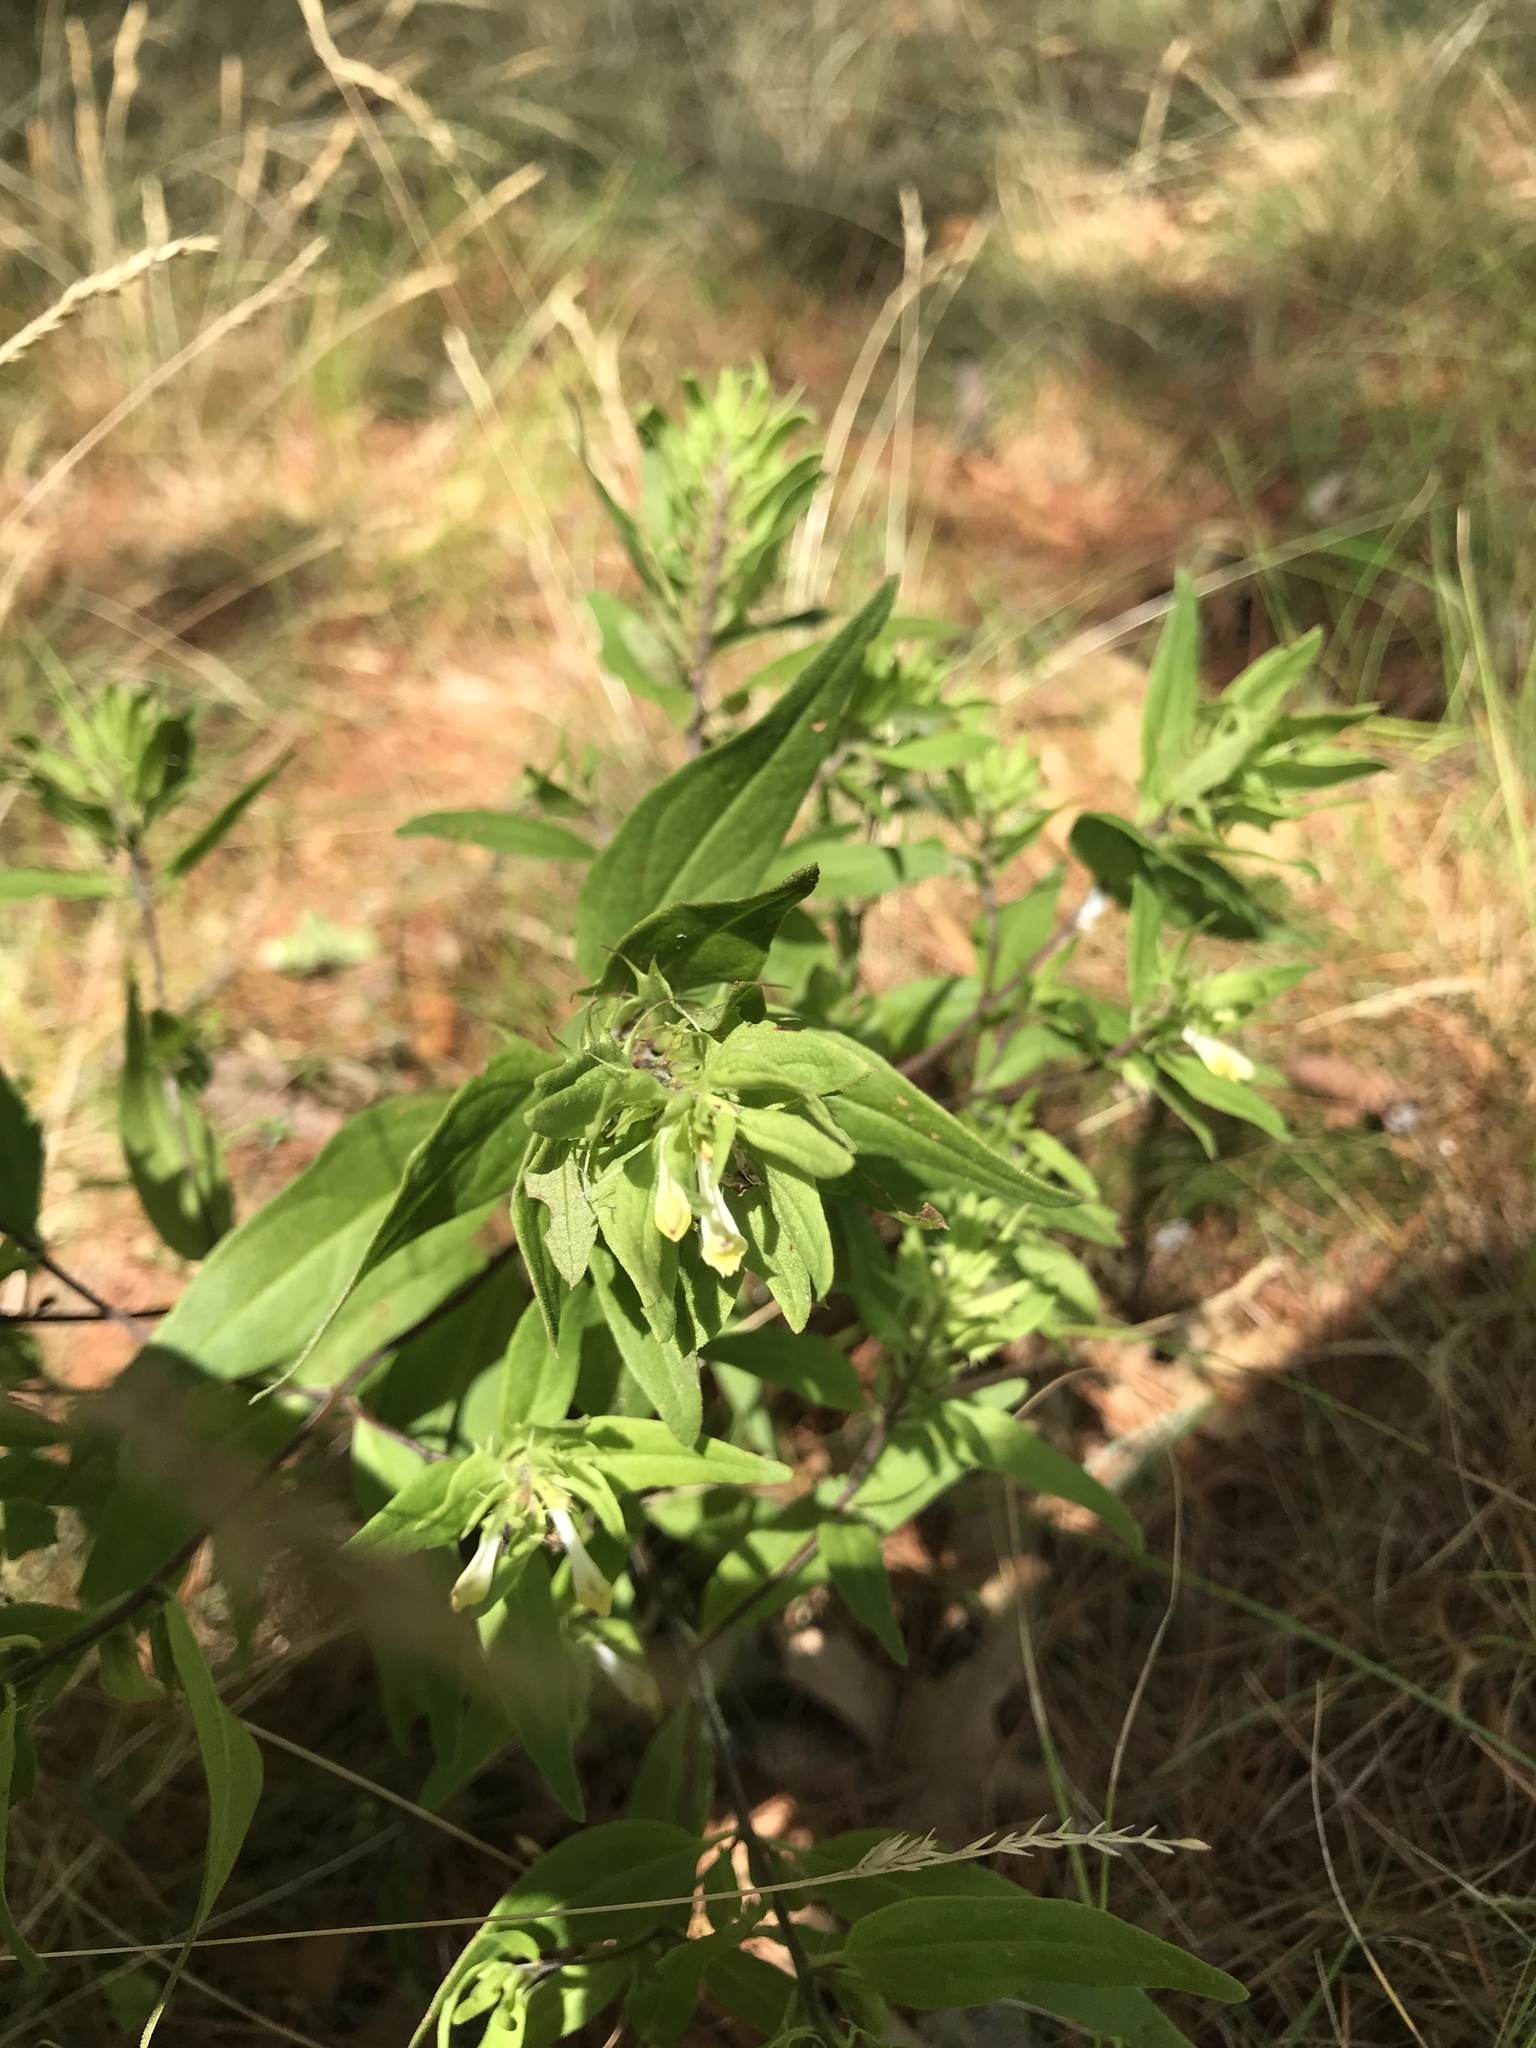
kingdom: Plantae
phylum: Tracheophyta
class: Magnoliopsida
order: Lamiales
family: Orobanchaceae
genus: Melampyrum
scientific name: Melampyrum lineare
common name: American cow-wheat
